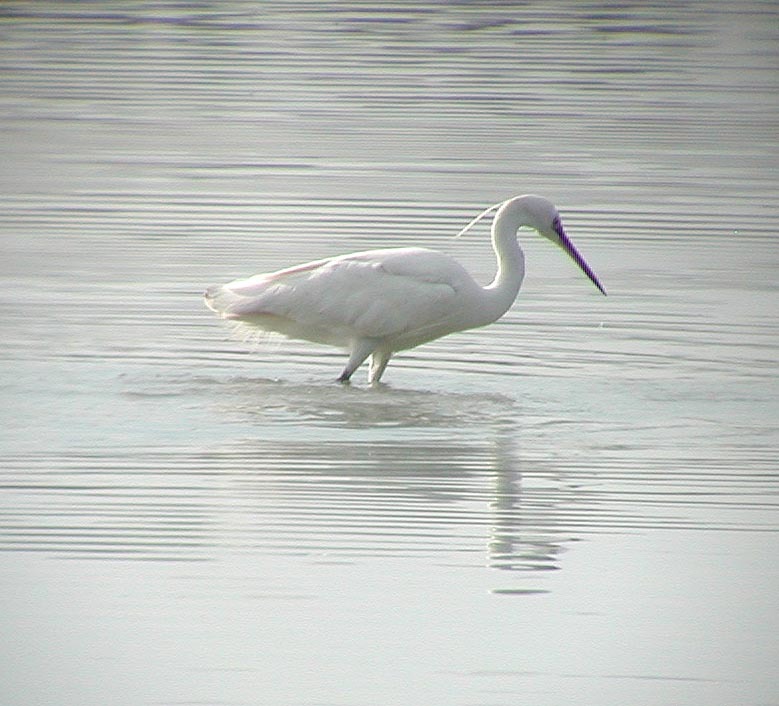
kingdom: Animalia
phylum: Chordata
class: Aves
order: Pelecaniformes
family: Ardeidae
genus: Egretta
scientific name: Egretta garzetta
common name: Little egret
